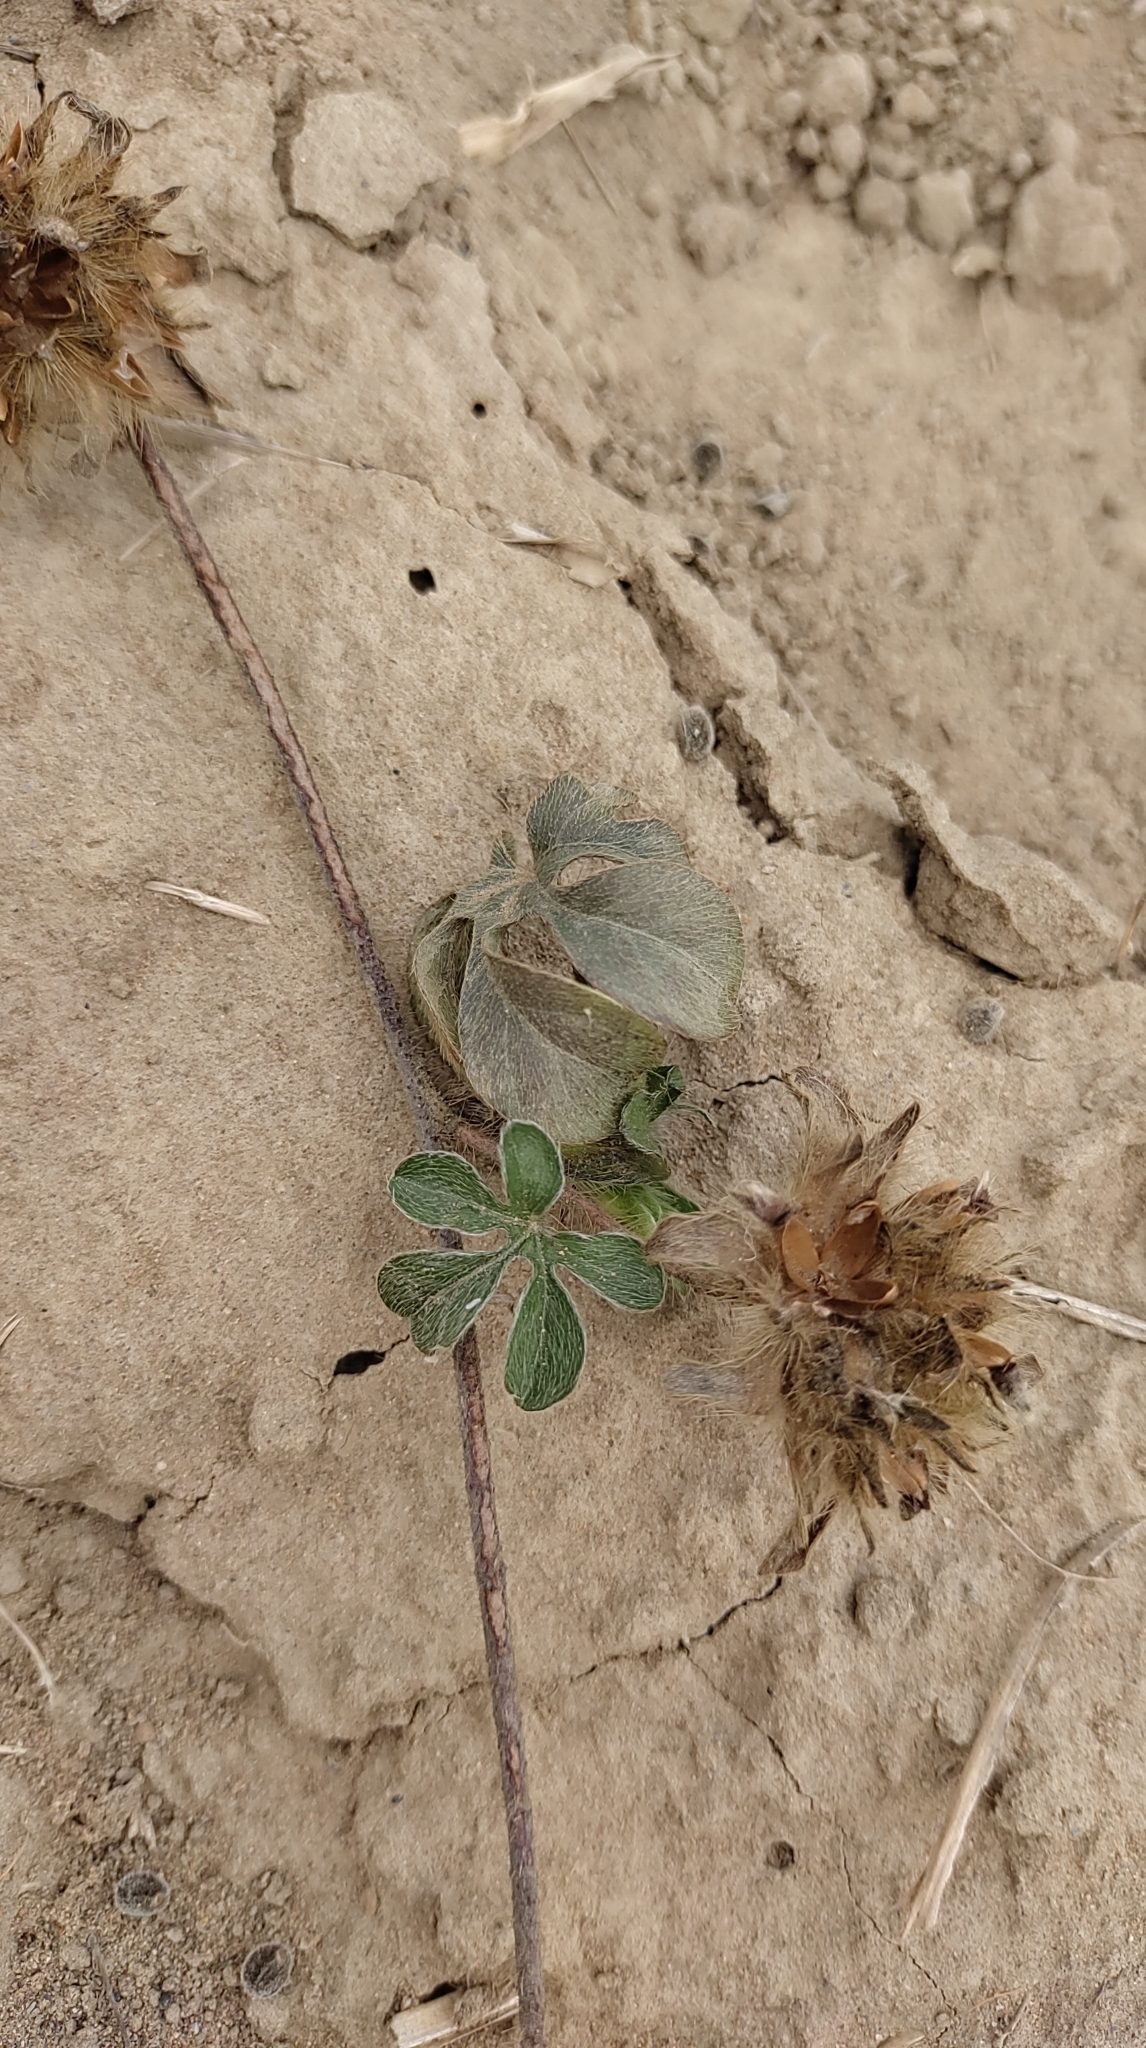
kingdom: Plantae
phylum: Tracheophyta
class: Magnoliopsida
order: Solanales
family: Convolvulaceae
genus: Ipomoea
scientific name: Ipomoea pes-tigridis
